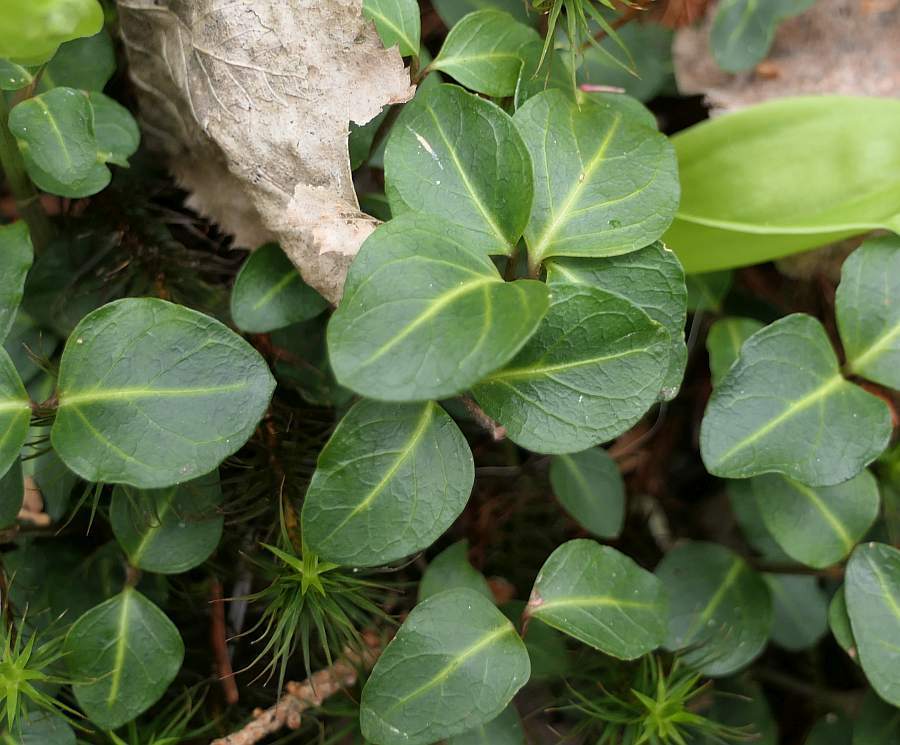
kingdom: Plantae
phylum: Tracheophyta
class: Magnoliopsida
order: Gentianales
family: Rubiaceae
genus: Mitchella
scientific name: Mitchella repens
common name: Partridge-berry
